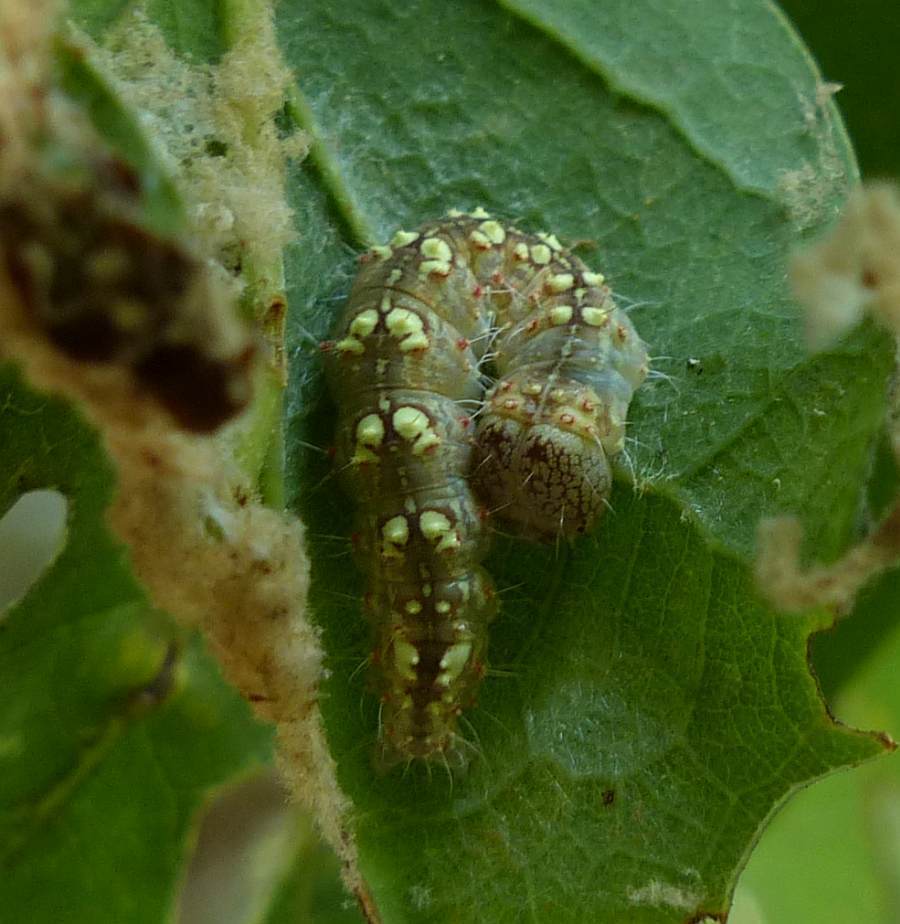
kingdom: Animalia
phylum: Arthropoda
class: Insecta
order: Lepidoptera
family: Noctuidae
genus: Acronicta
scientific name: Acronicta increta
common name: Eclipsed oak dagger
